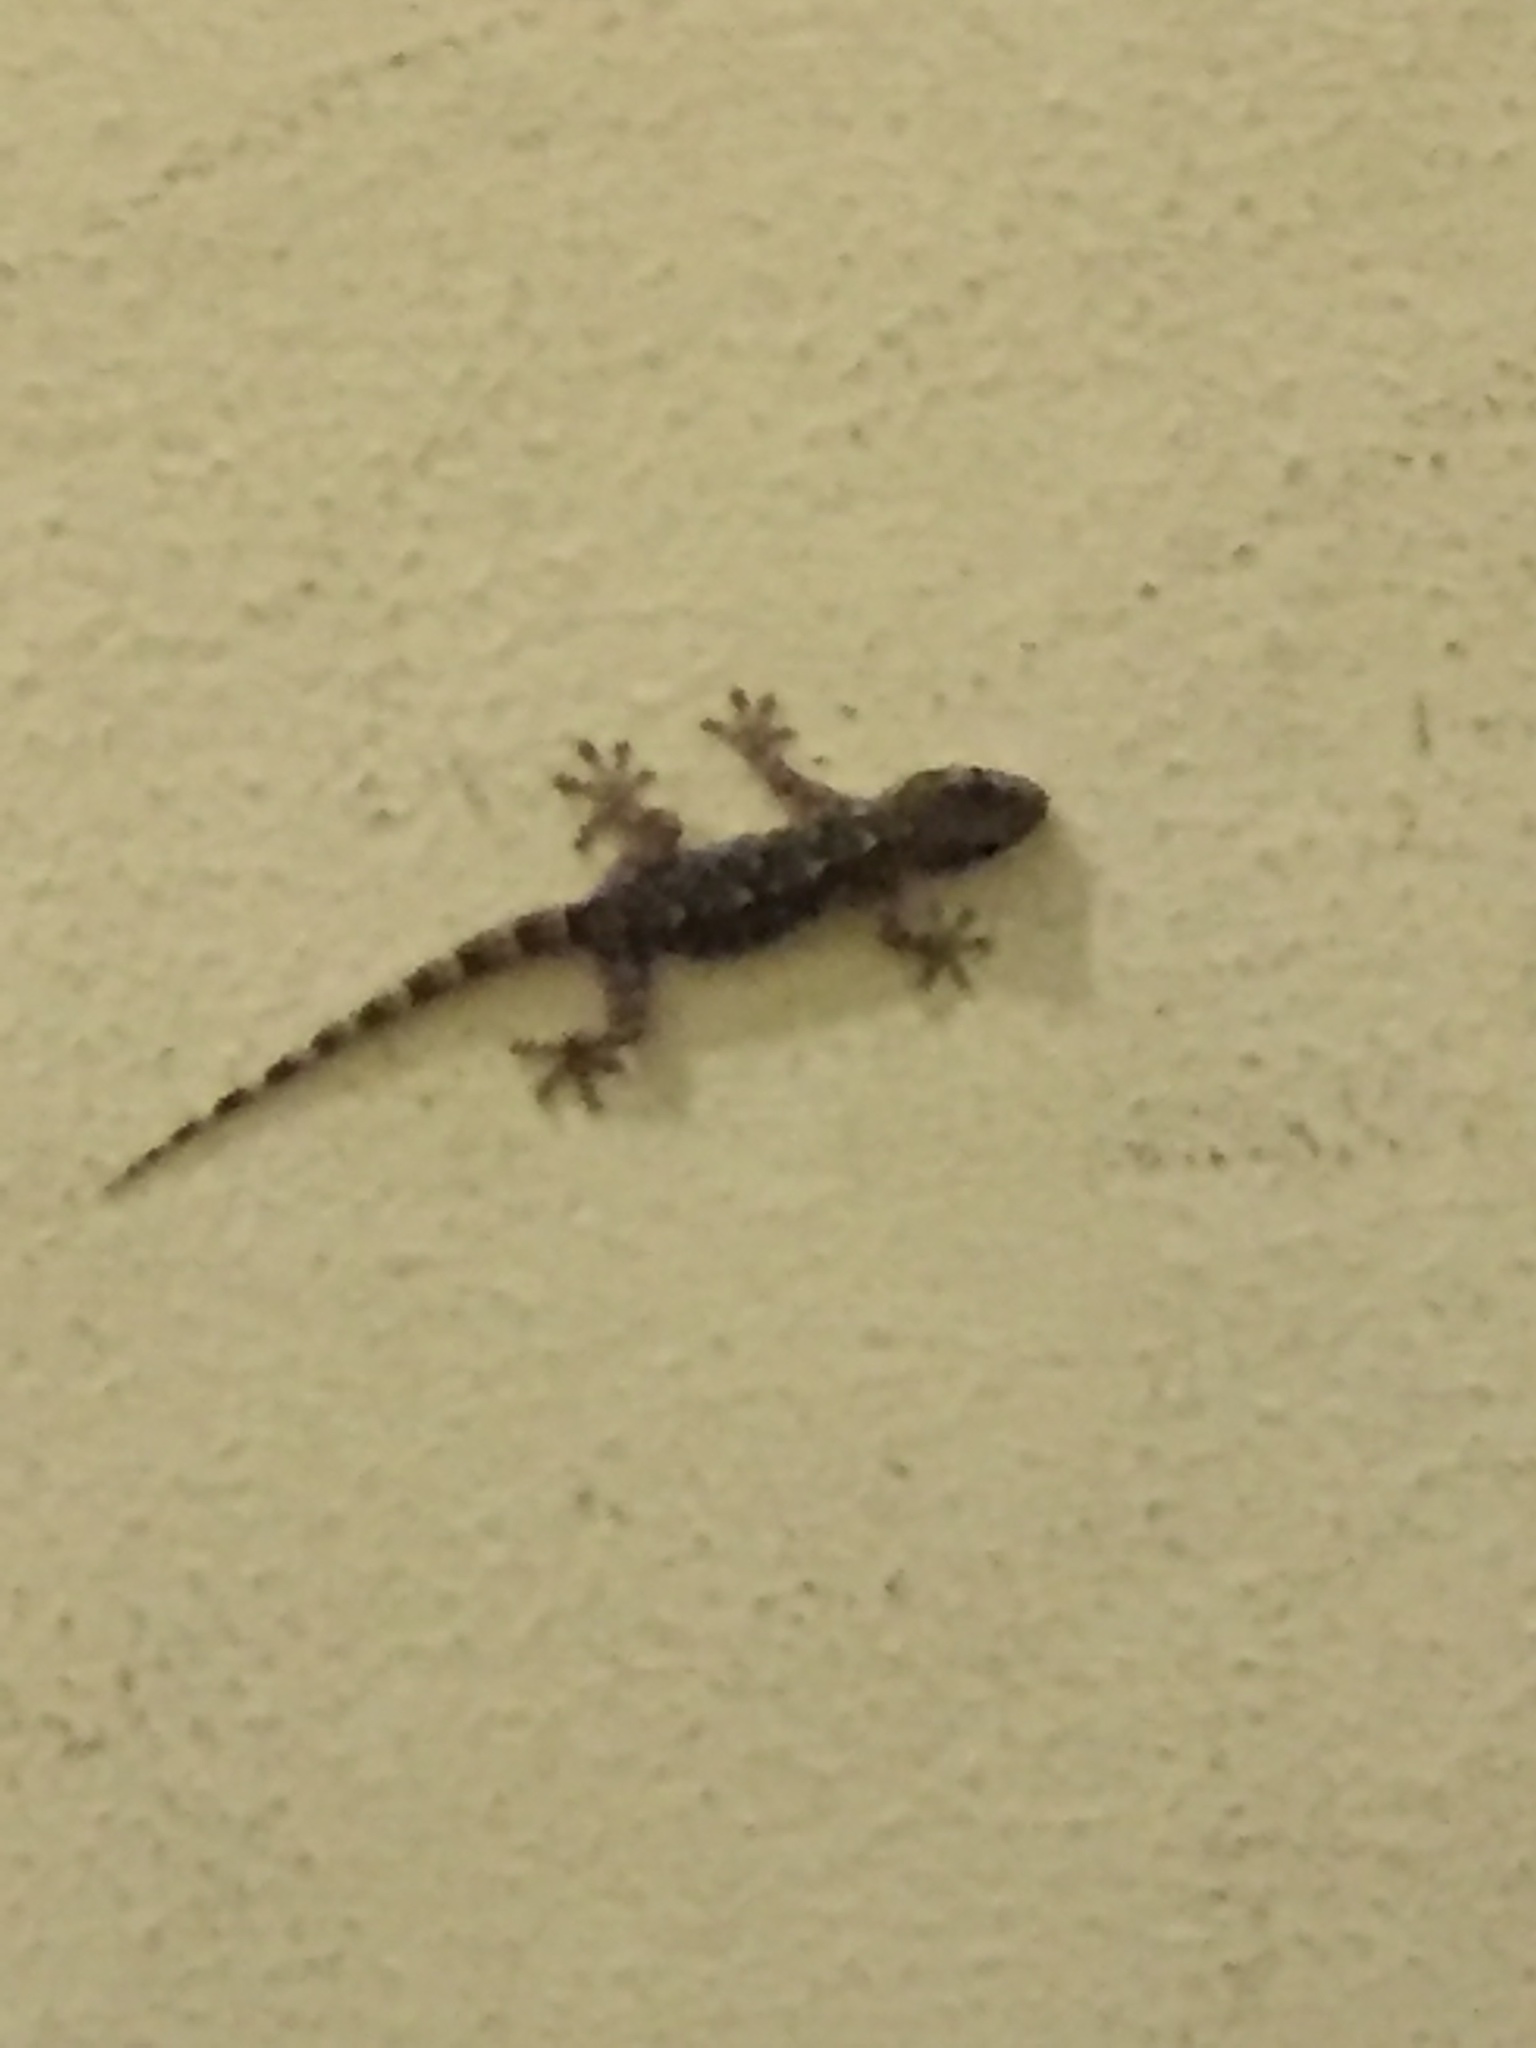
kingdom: Animalia
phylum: Chordata
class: Squamata
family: Phyllodactylidae
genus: Tarentola
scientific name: Tarentola mauritanica
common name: Moorish gecko
